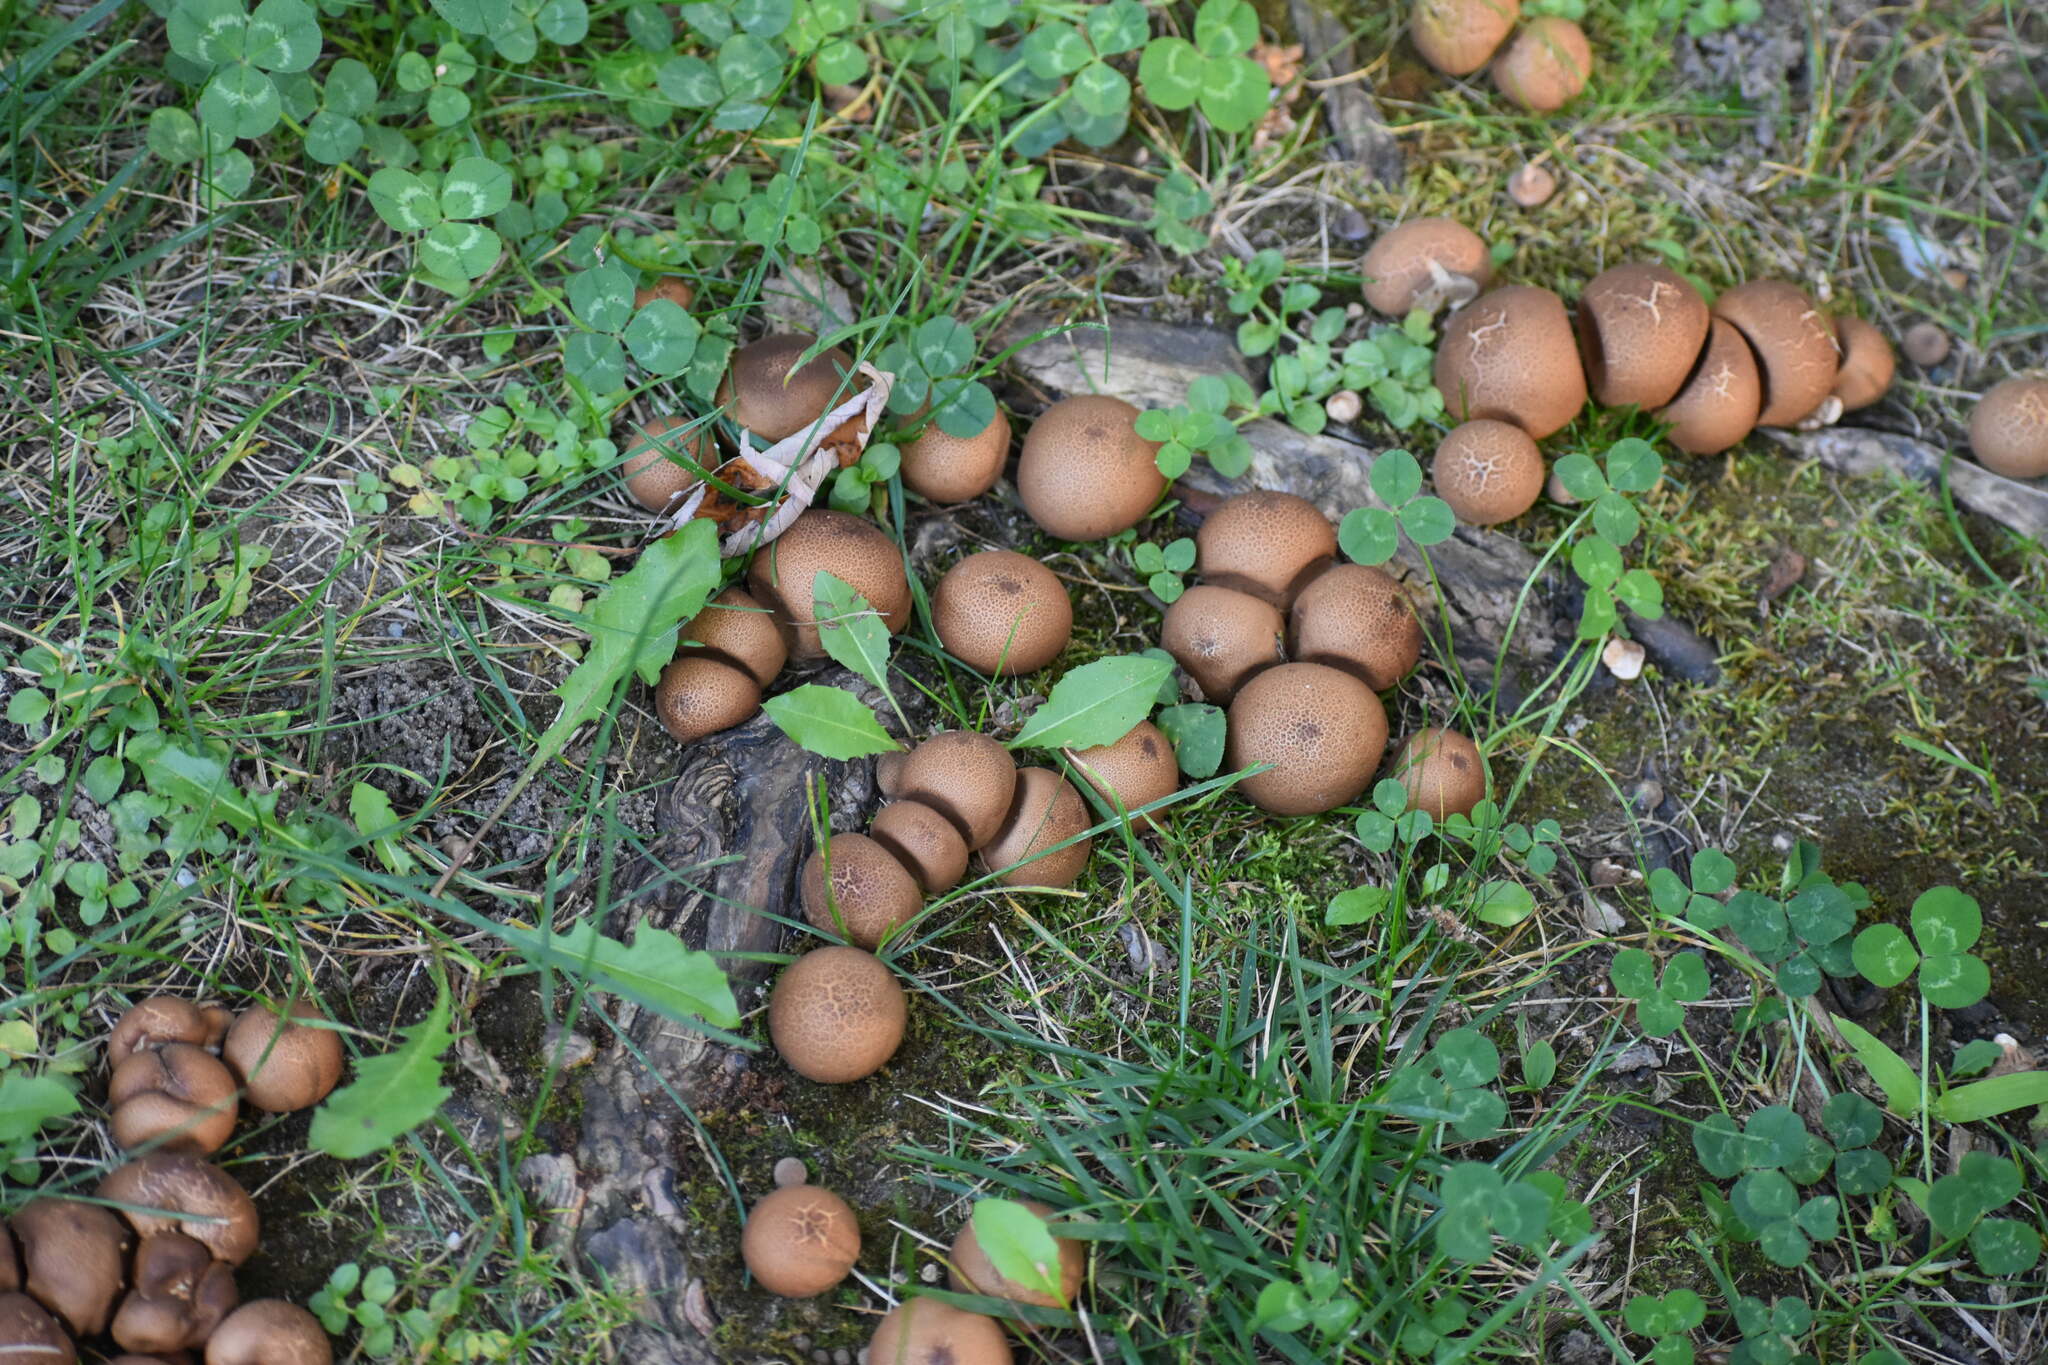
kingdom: Fungi
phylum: Basidiomycota
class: Agaricomycetes
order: Agaricales
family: Lycoperdaceae
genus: Apioperdon
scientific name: Apioperdon pyriforme
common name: Pear-shaped puffball
